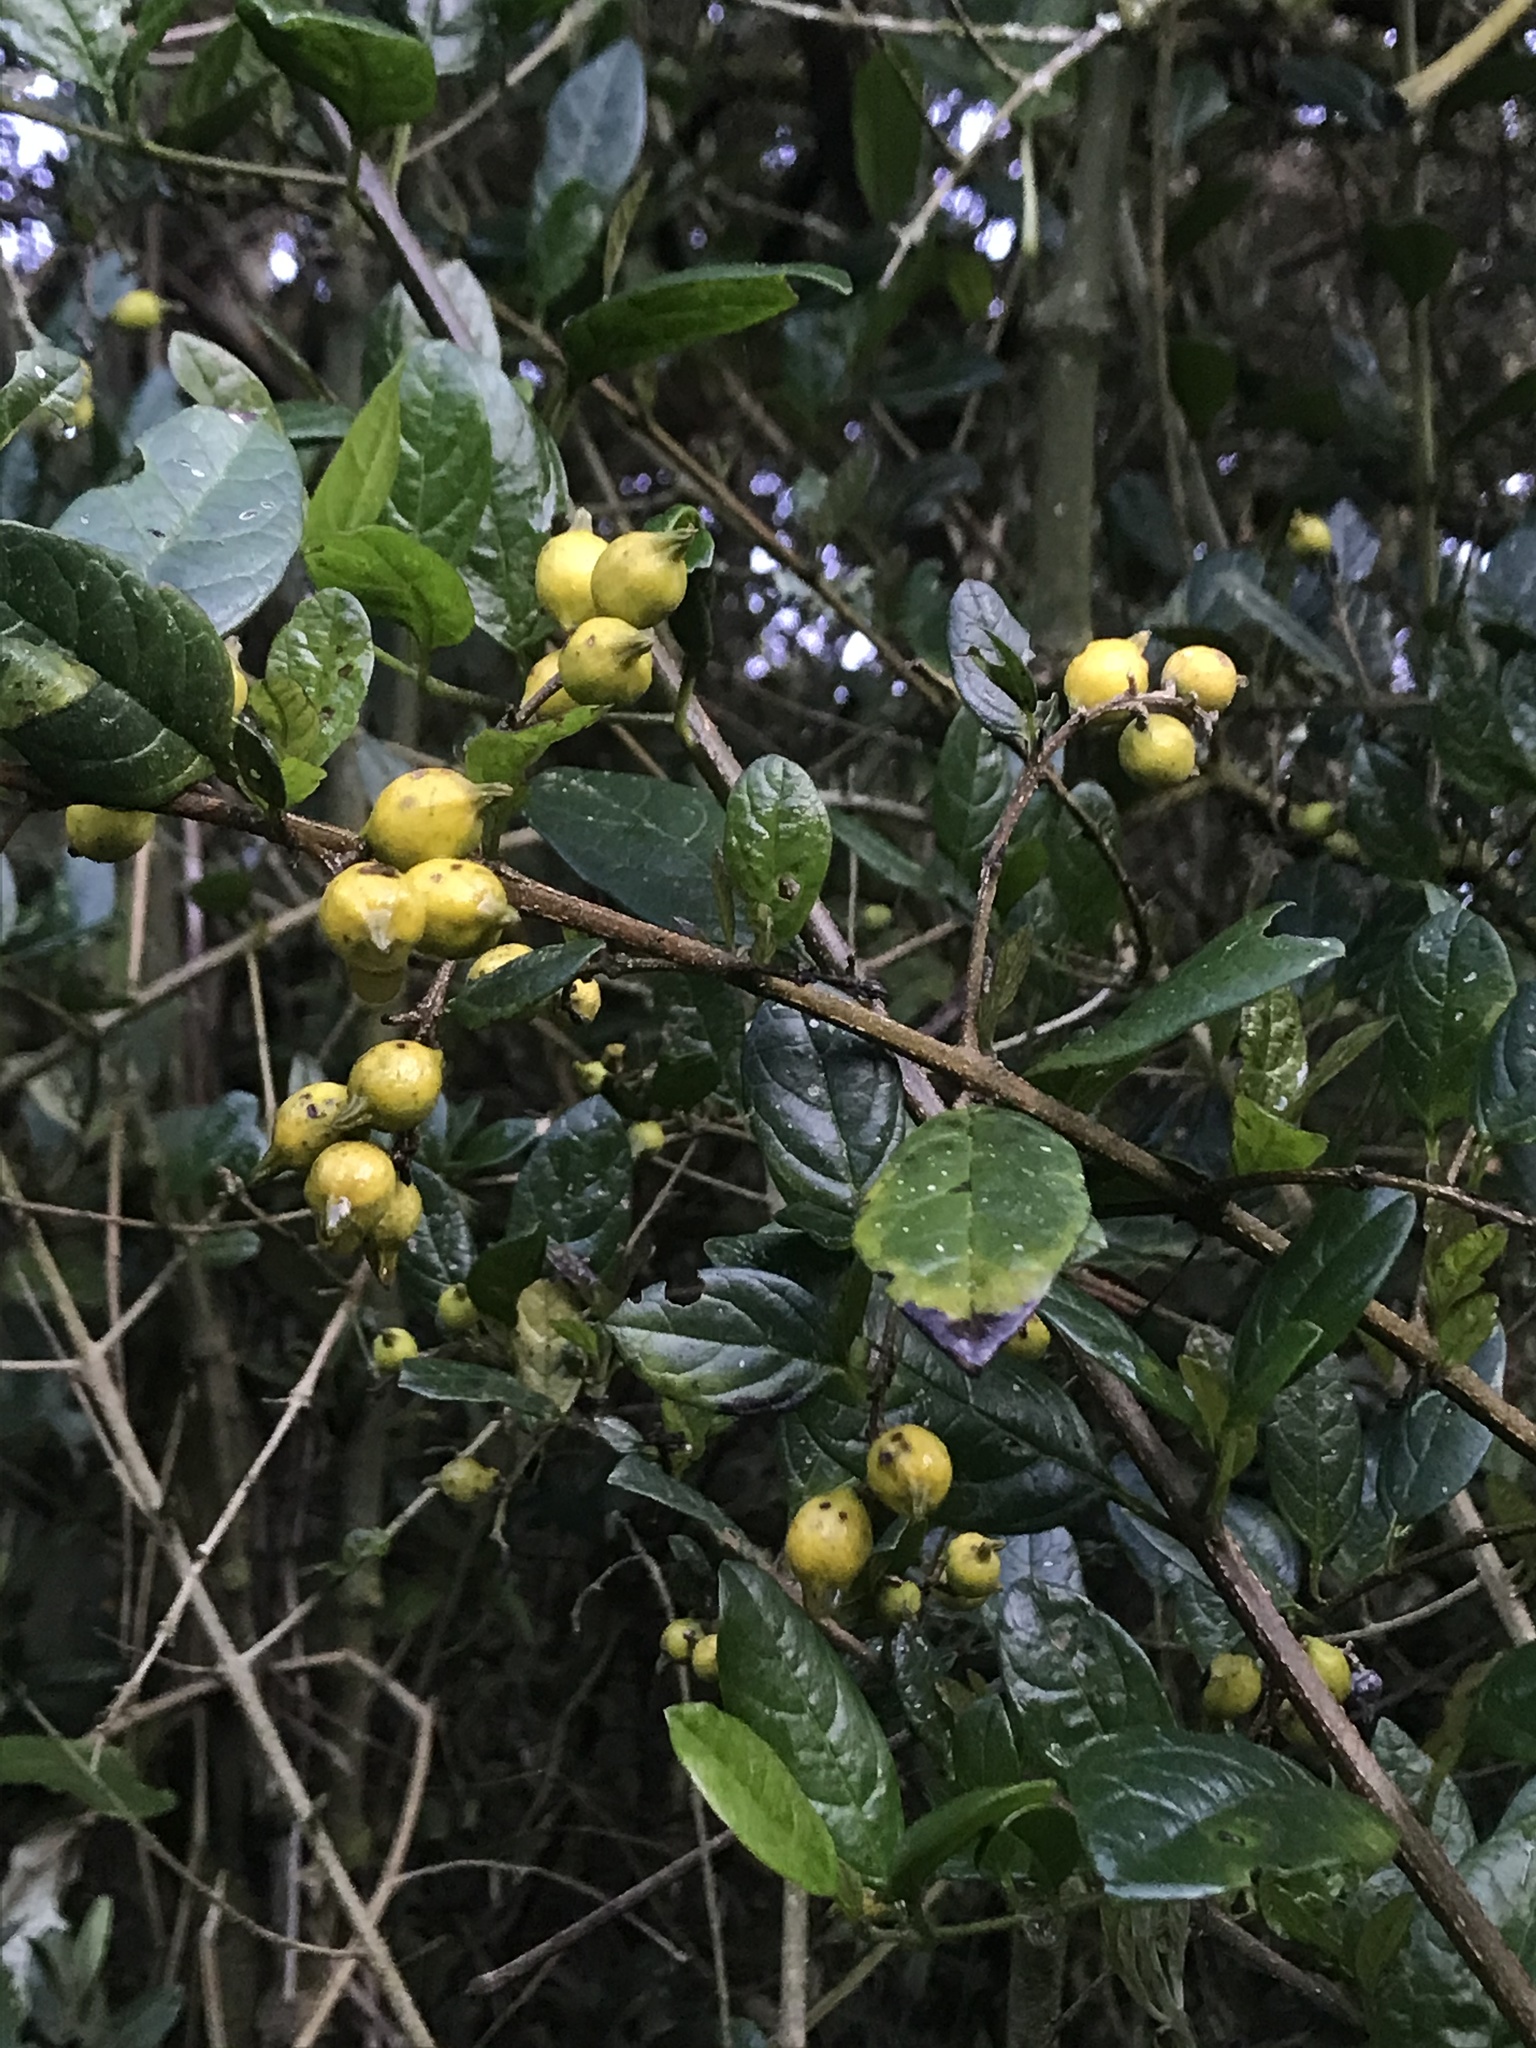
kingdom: Plantae
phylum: Tracheophyta
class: Magnoliopsida
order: Lamiales
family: Verbenaceae
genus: Duranta
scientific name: Duranta mutisii
